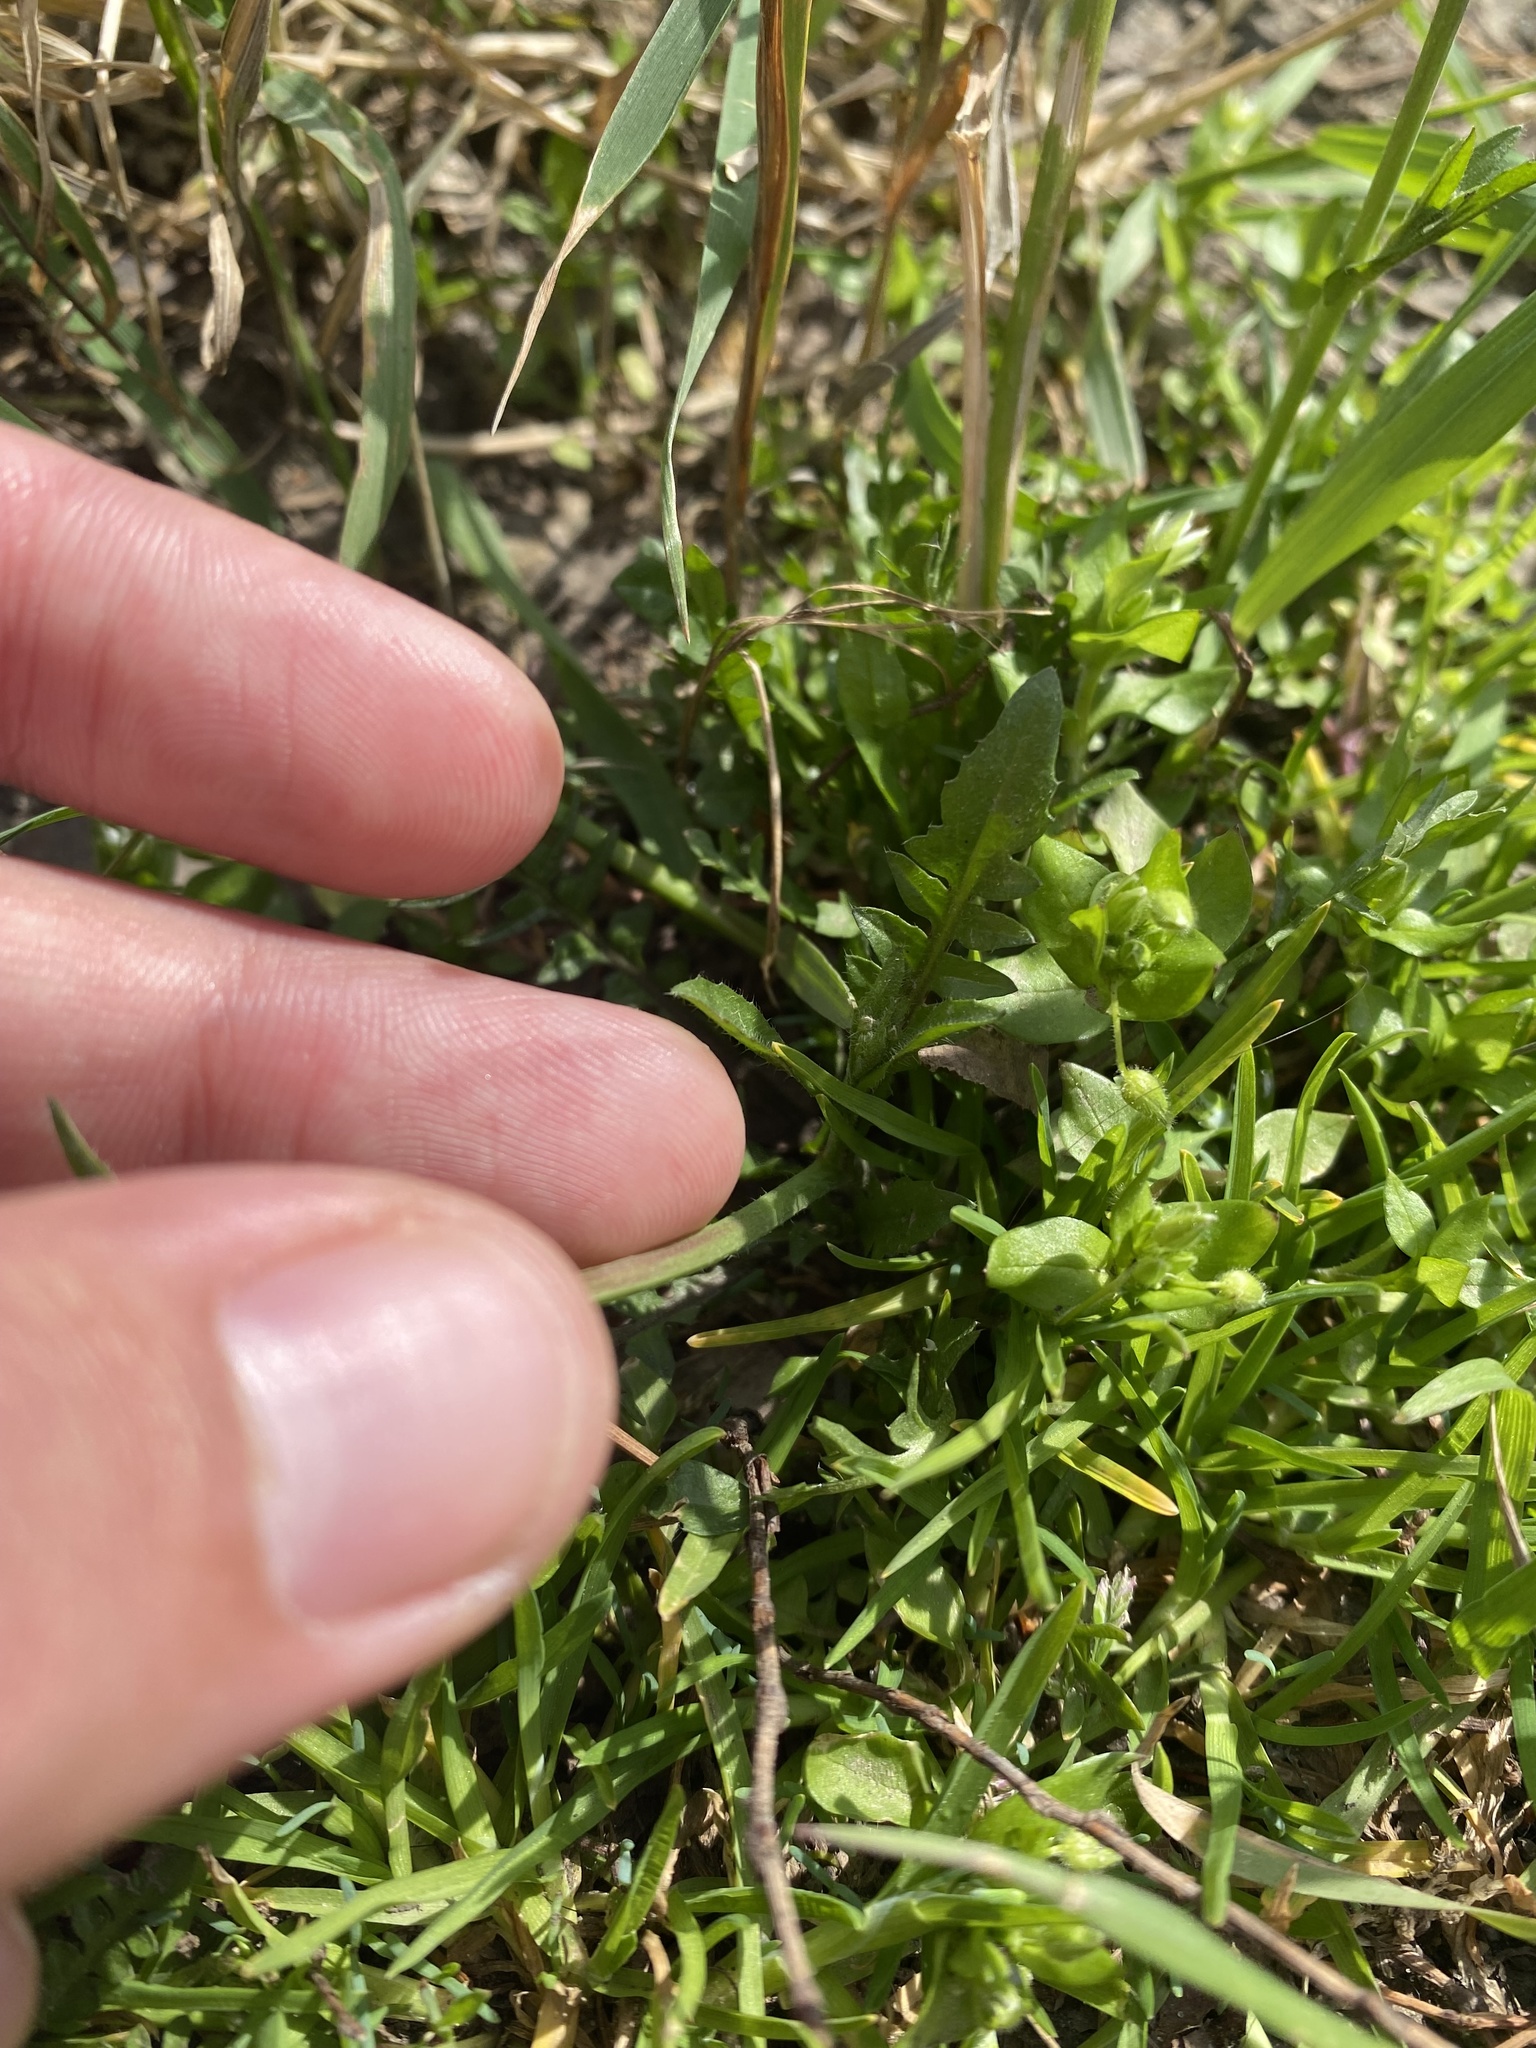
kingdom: Plantae
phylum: Tracheophyta
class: Magnoliopsida
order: Brassicales
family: Brassicaceae
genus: Capsella
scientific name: Capsella bursa-pastoris
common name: Shepherd's purse
